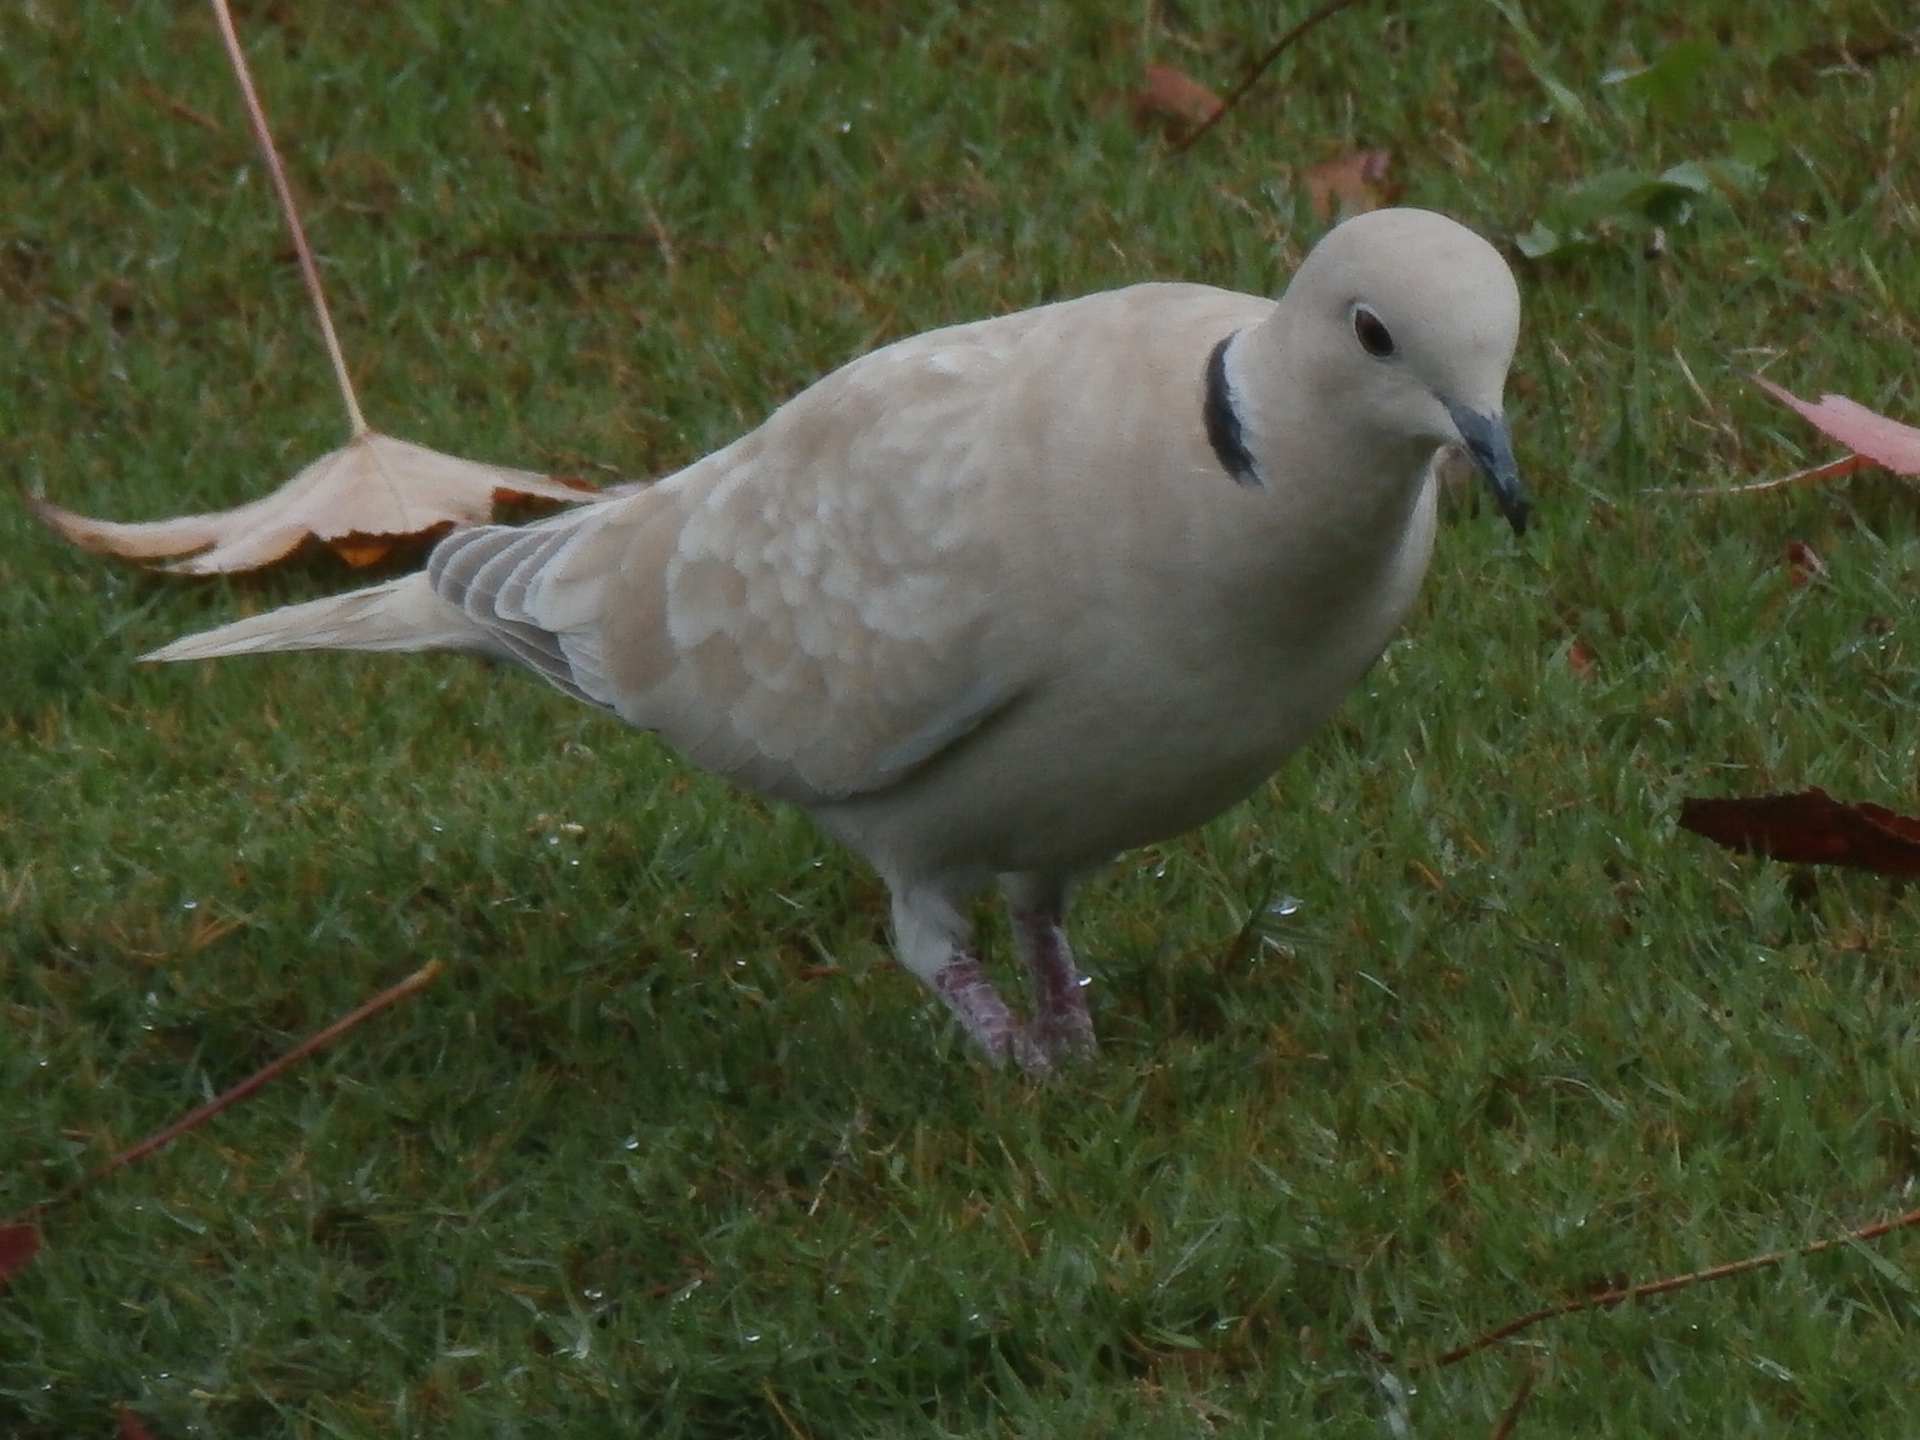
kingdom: Animalia
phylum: Chordata
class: Aves
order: Columbiformes
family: Columbidae
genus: Streptopelia
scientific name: Streptopelia roseogrisea
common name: African collared dove
